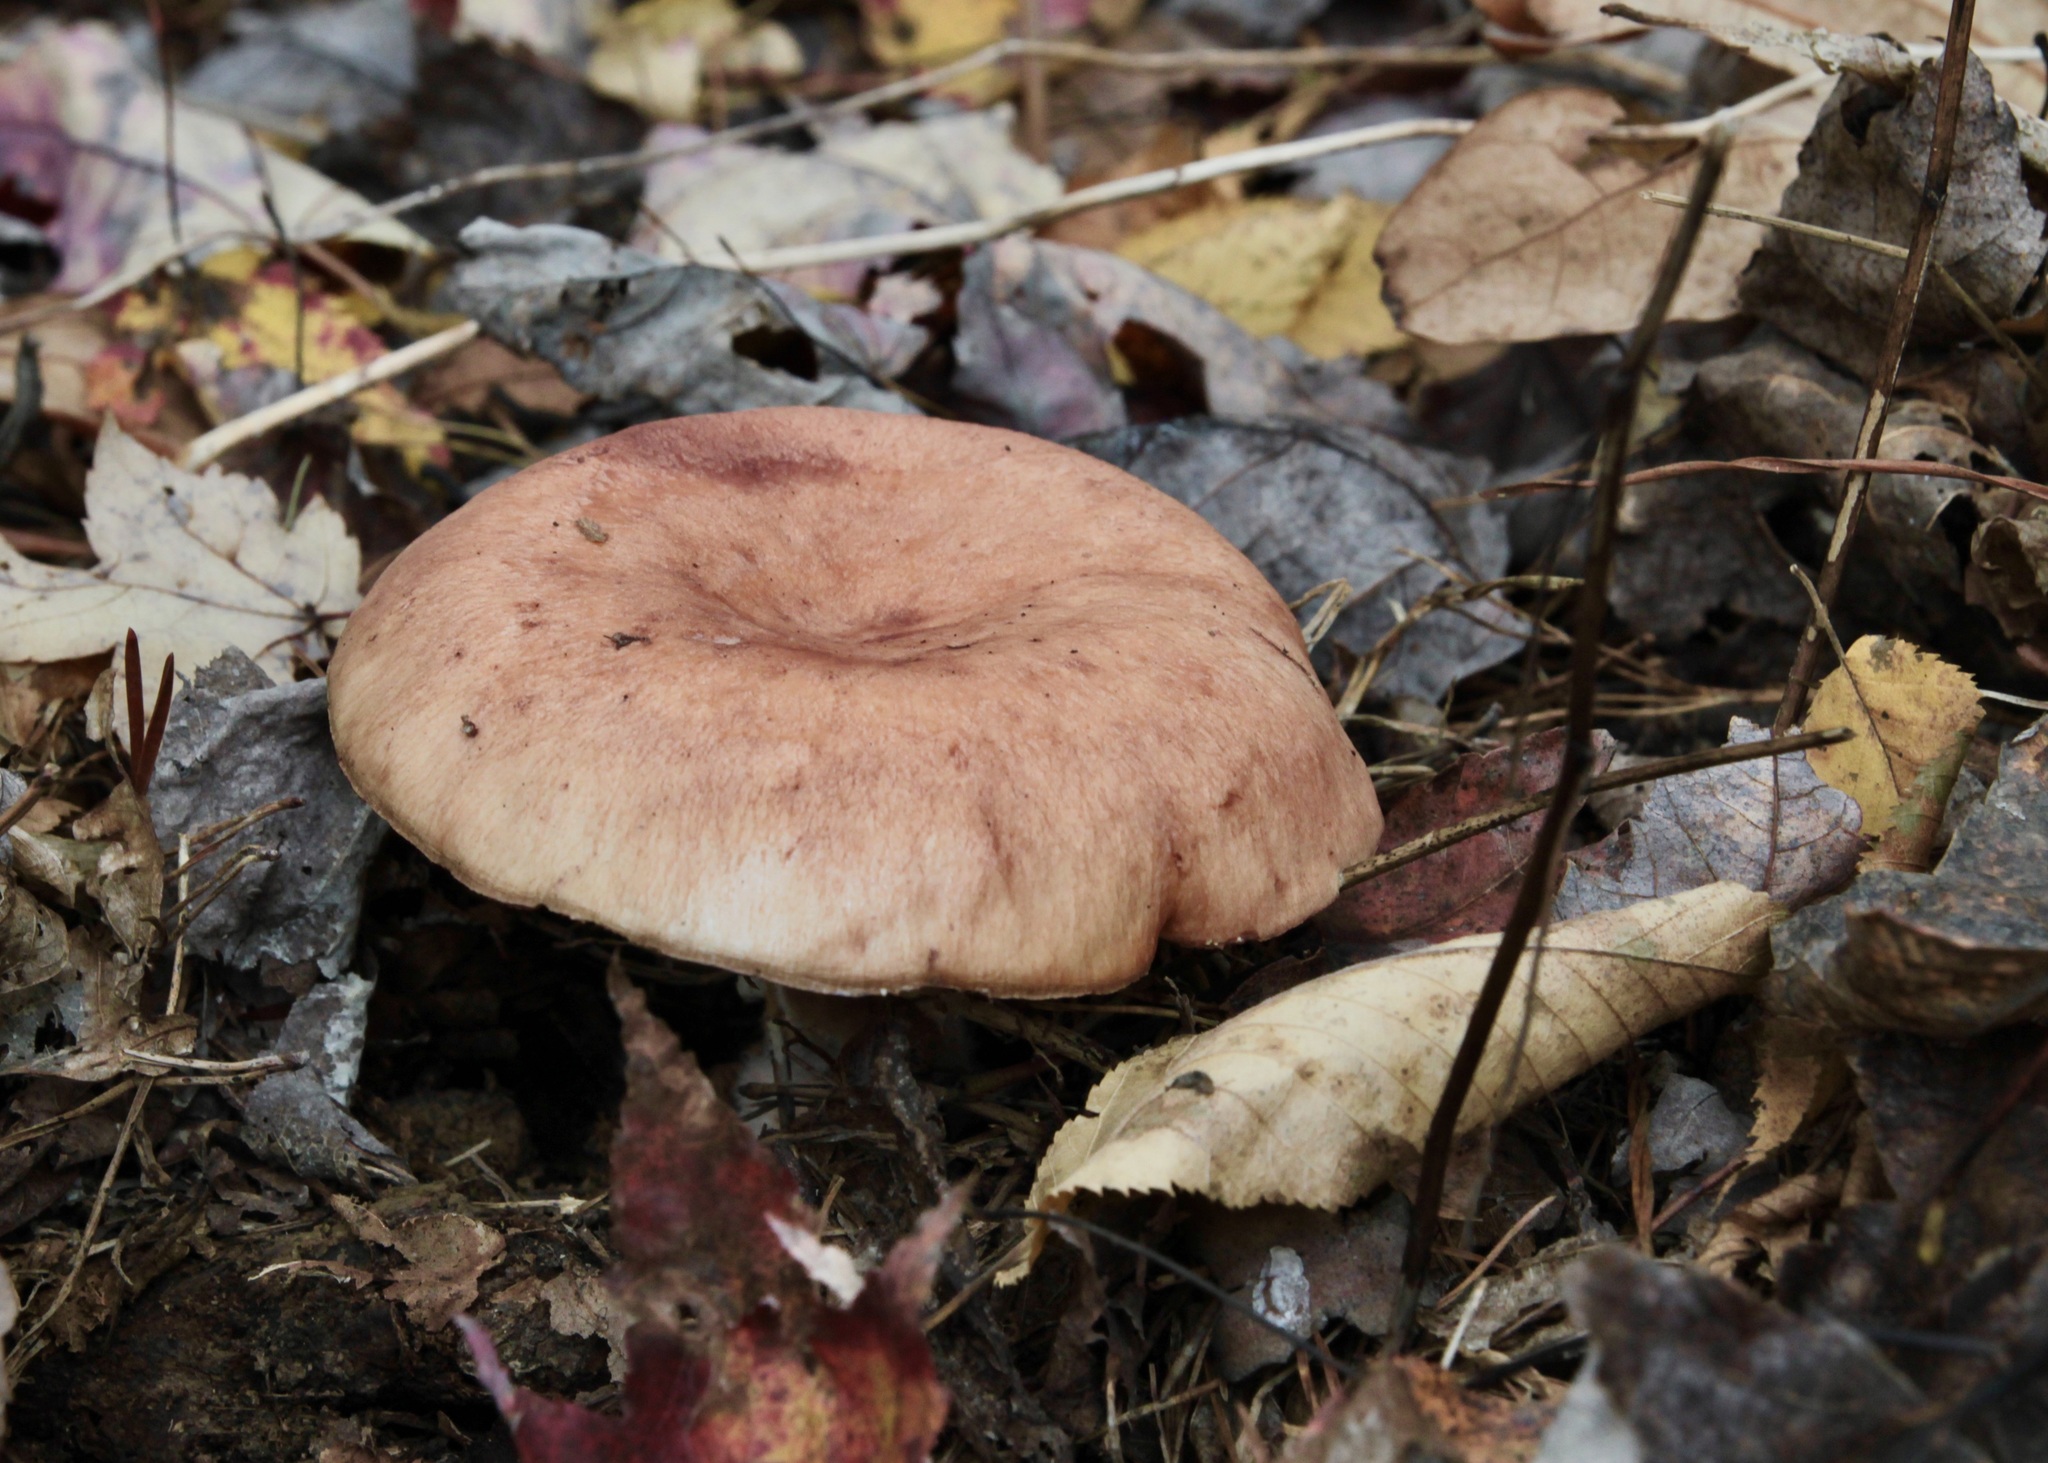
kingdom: Fungi
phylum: Basidiomycota
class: Agaricomycetes
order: Russulales
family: Russulaceae
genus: Lactarius
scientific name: Lactarius vinaceorufescens
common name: Yellow-latex milkcap
